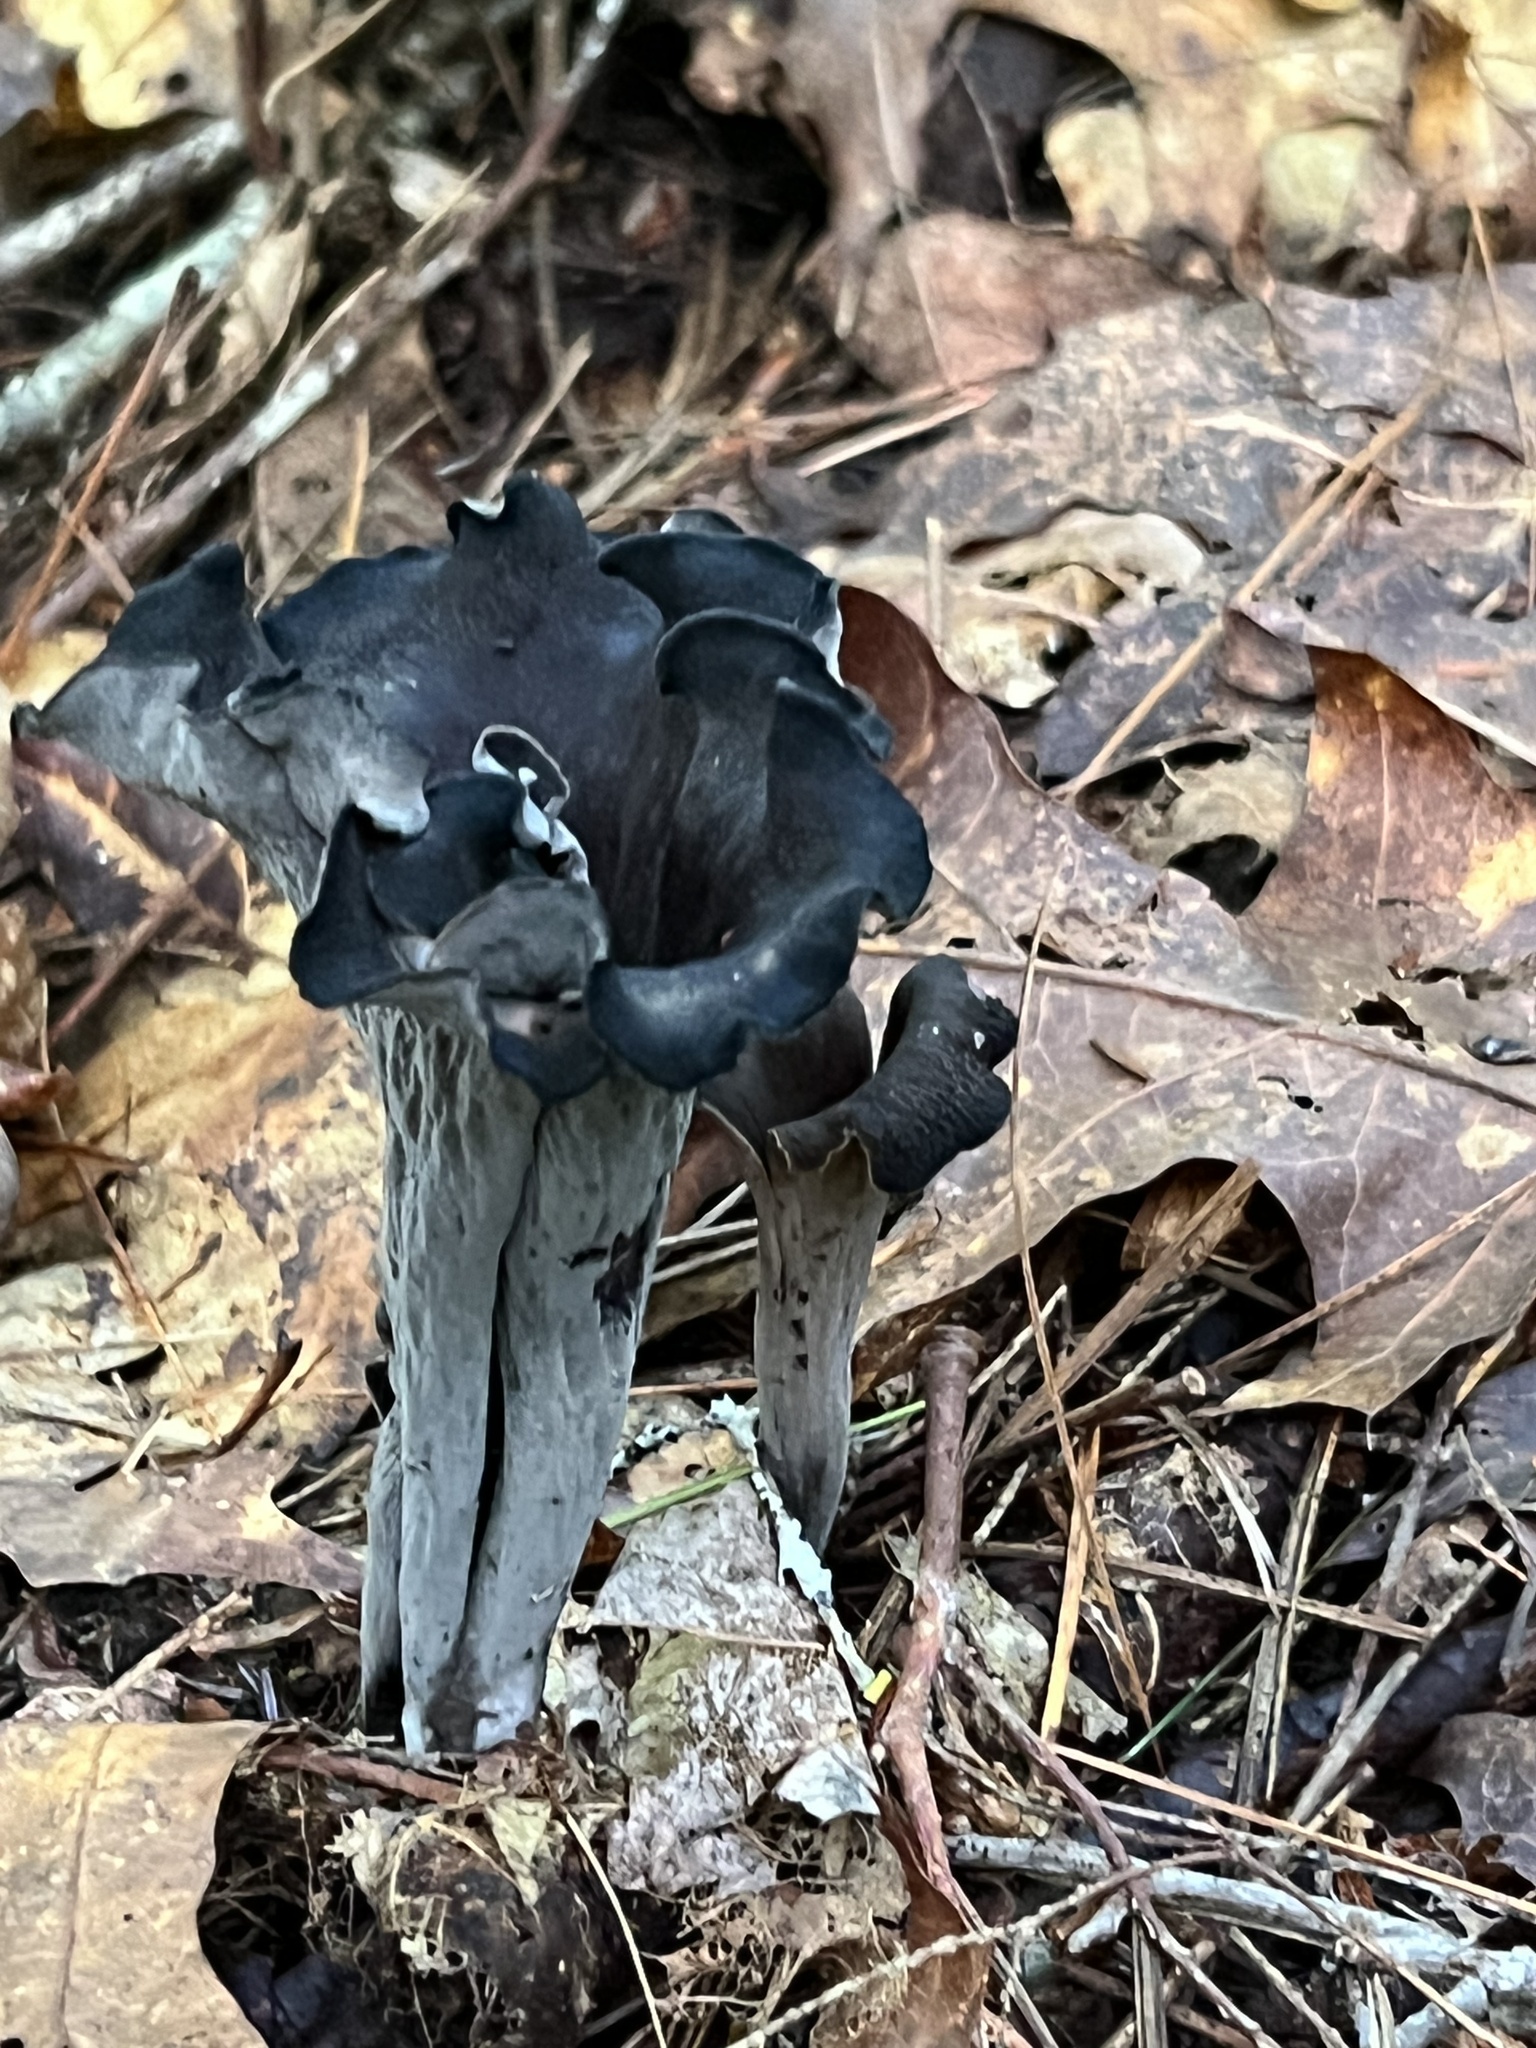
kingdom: Fungi
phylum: Basidiomycota
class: Agaricomycetes
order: Cantharellales
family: Hydnaceae
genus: Craterellus
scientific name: Craterellus cornucopioides
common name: Horn of plenty
